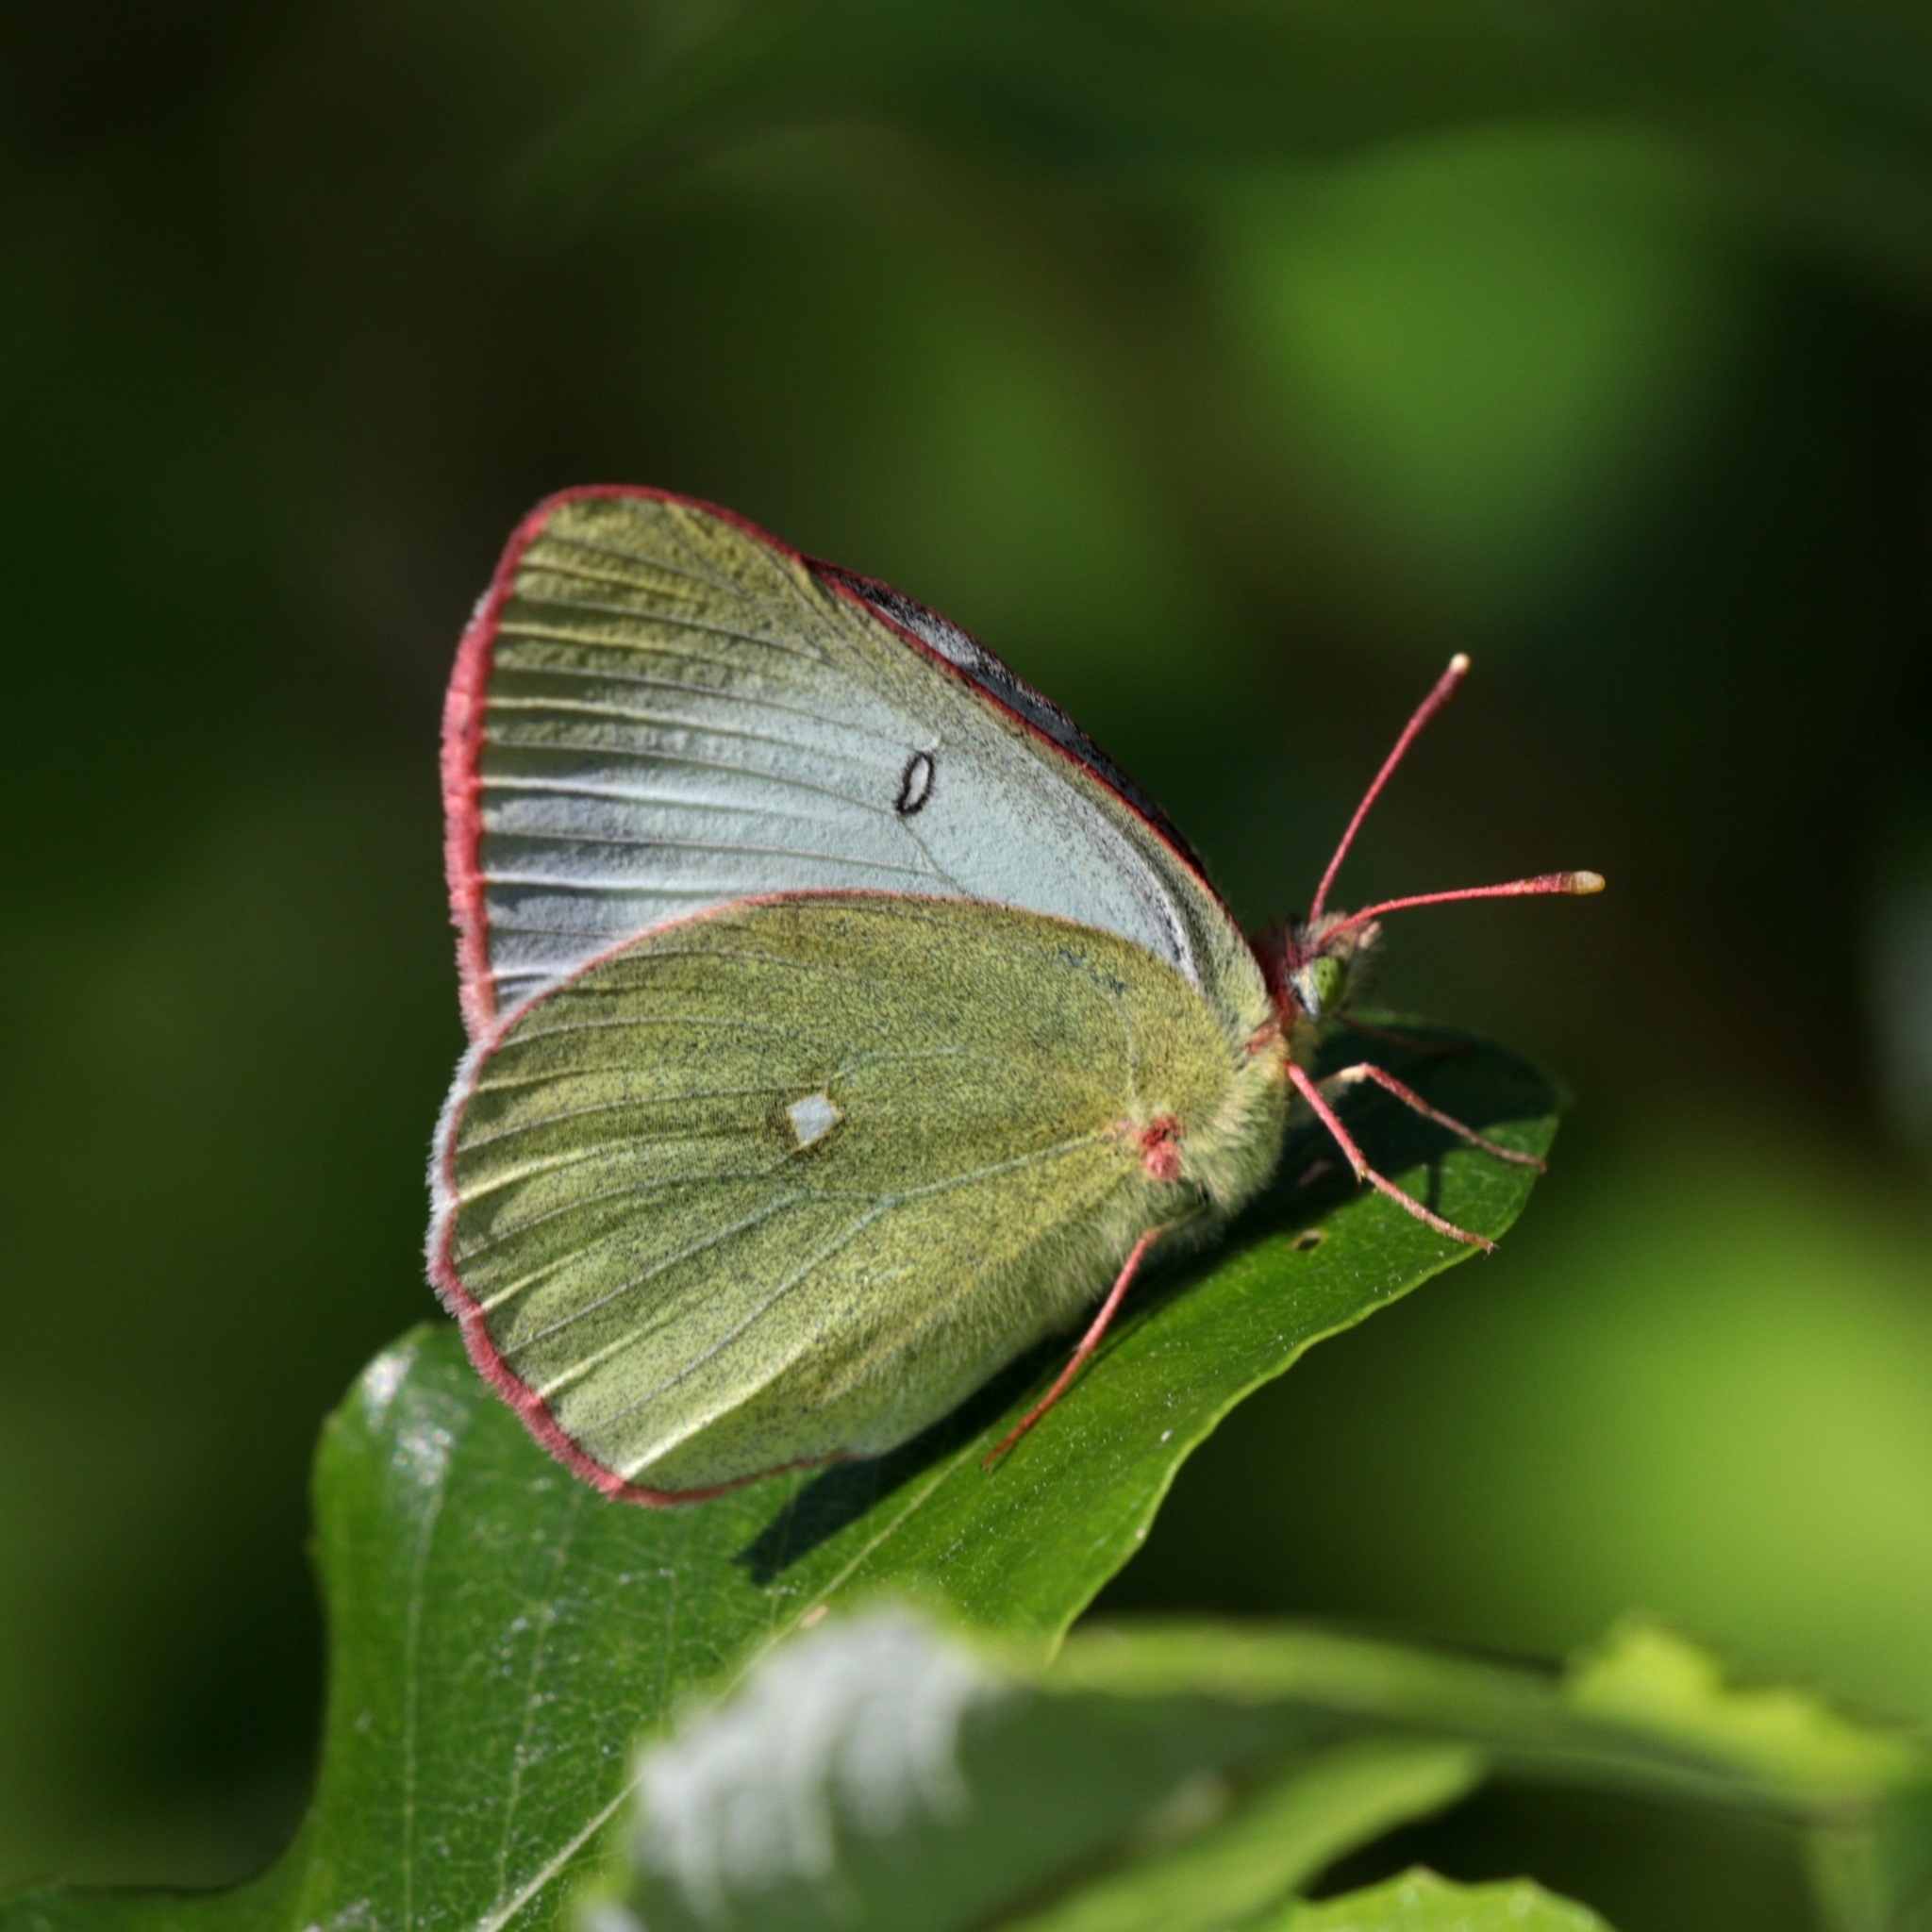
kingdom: Animalia
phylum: Arthropoda
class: Insecta
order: Lepidoptera
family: Pieridae
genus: Colias
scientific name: Colias palaeno
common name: Moorland clouded yellow
